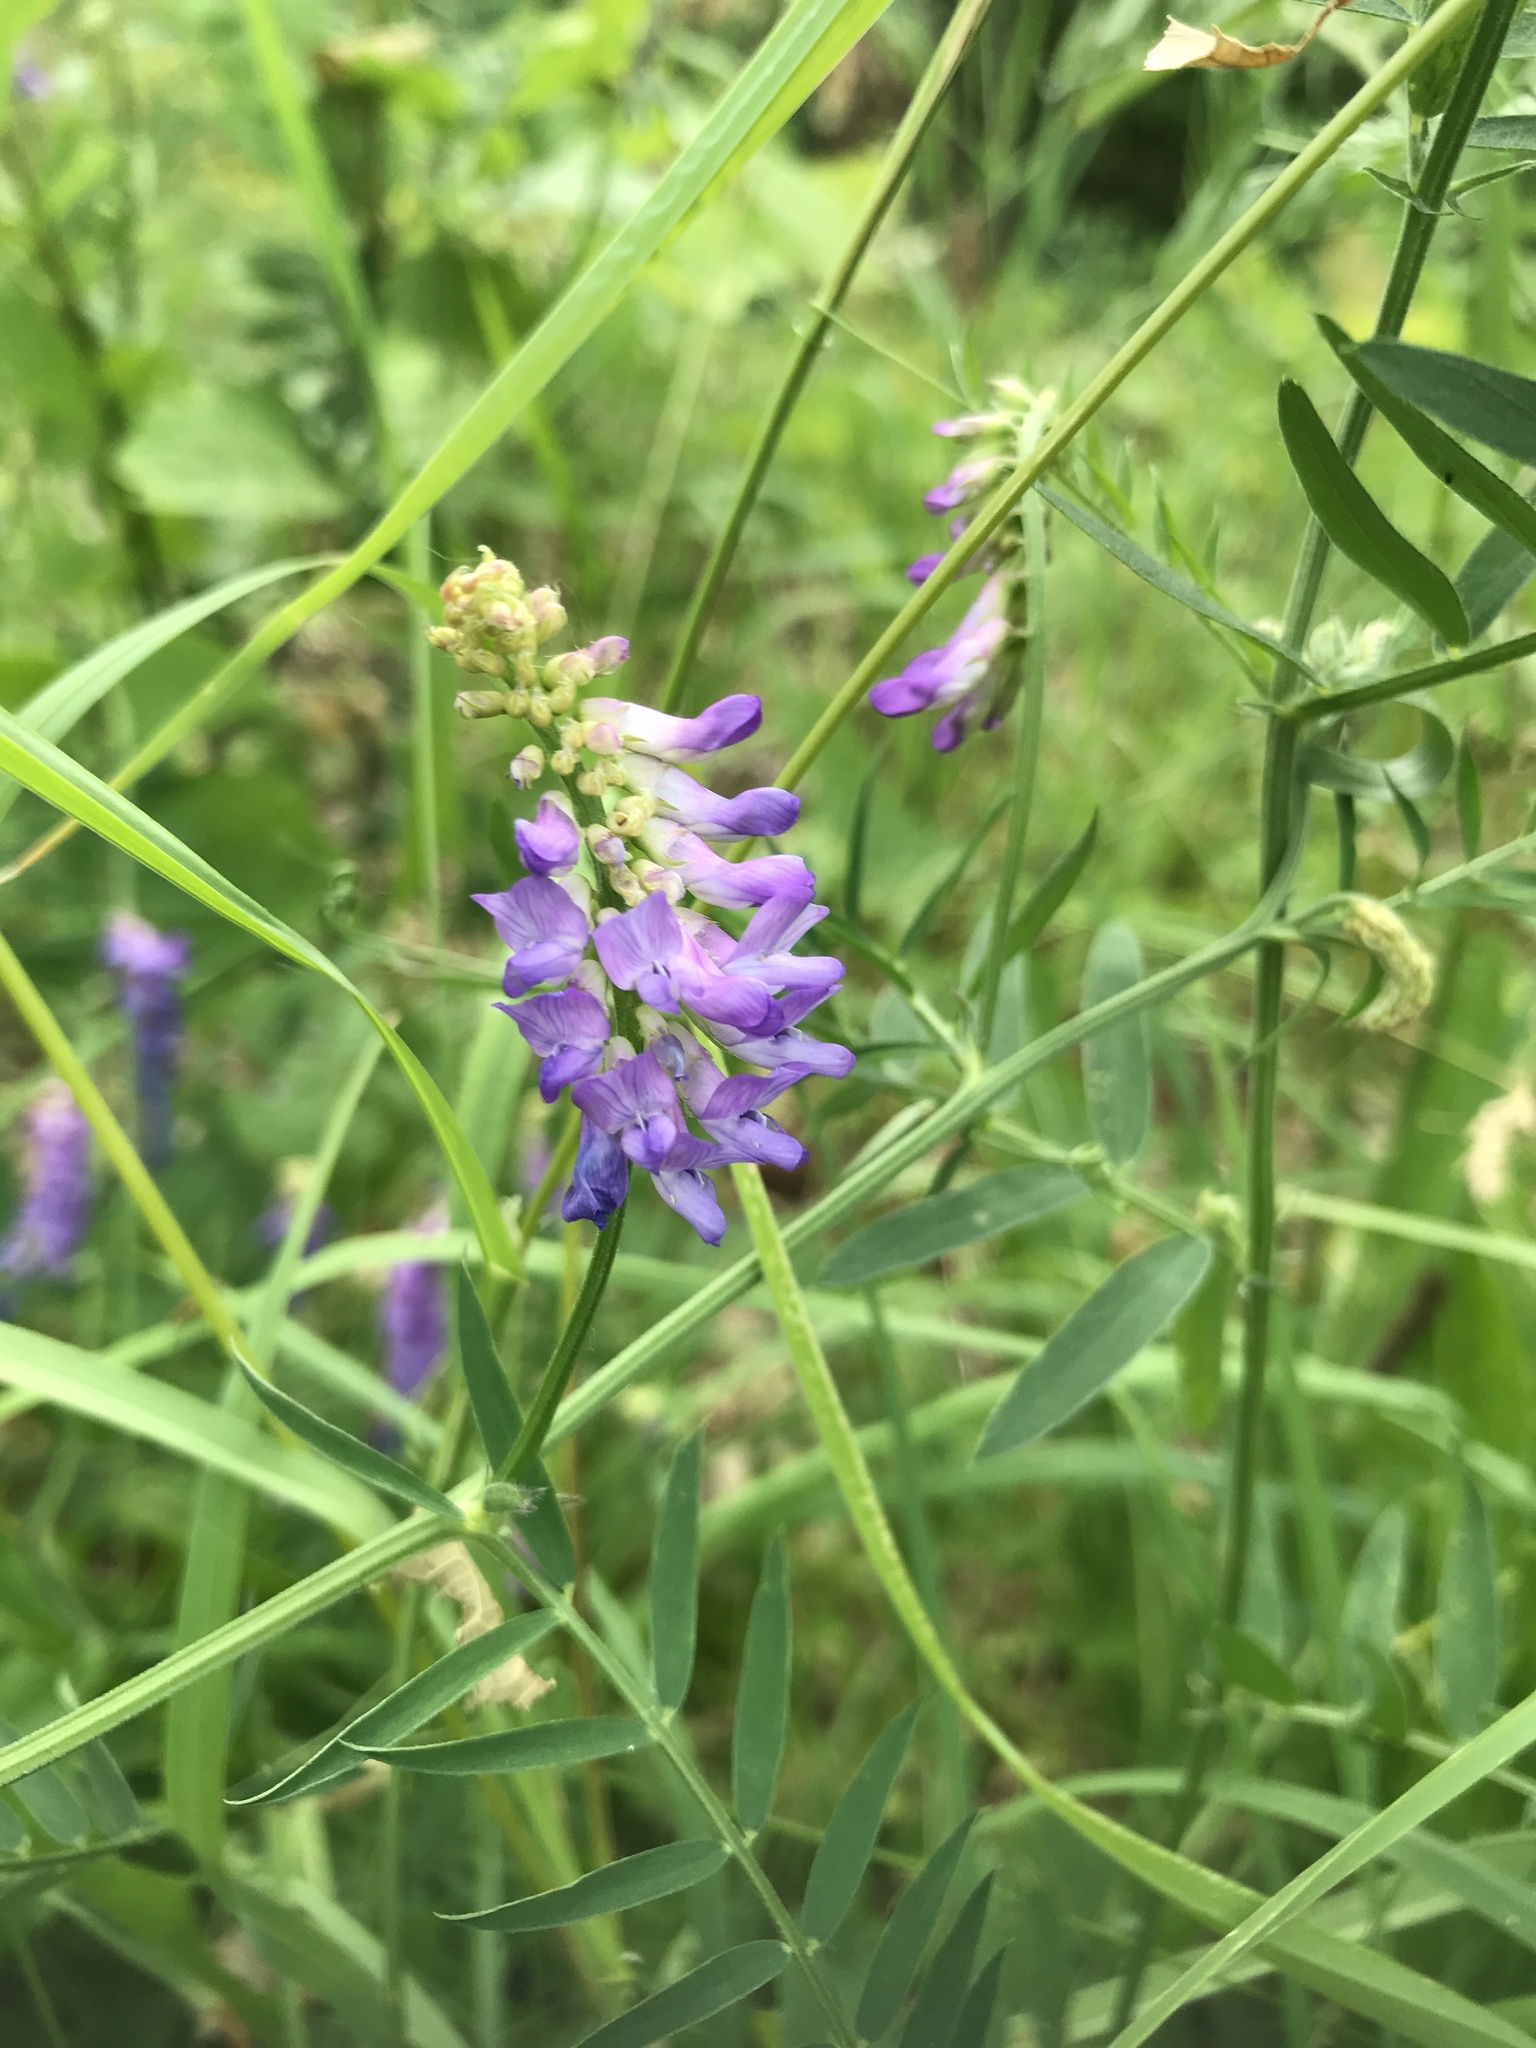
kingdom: Plantae
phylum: Tracheophyta
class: Magnoliopsida
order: Fabales
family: Fabaceae
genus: Vicia
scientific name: Vicia cracca
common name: Bird vetch
